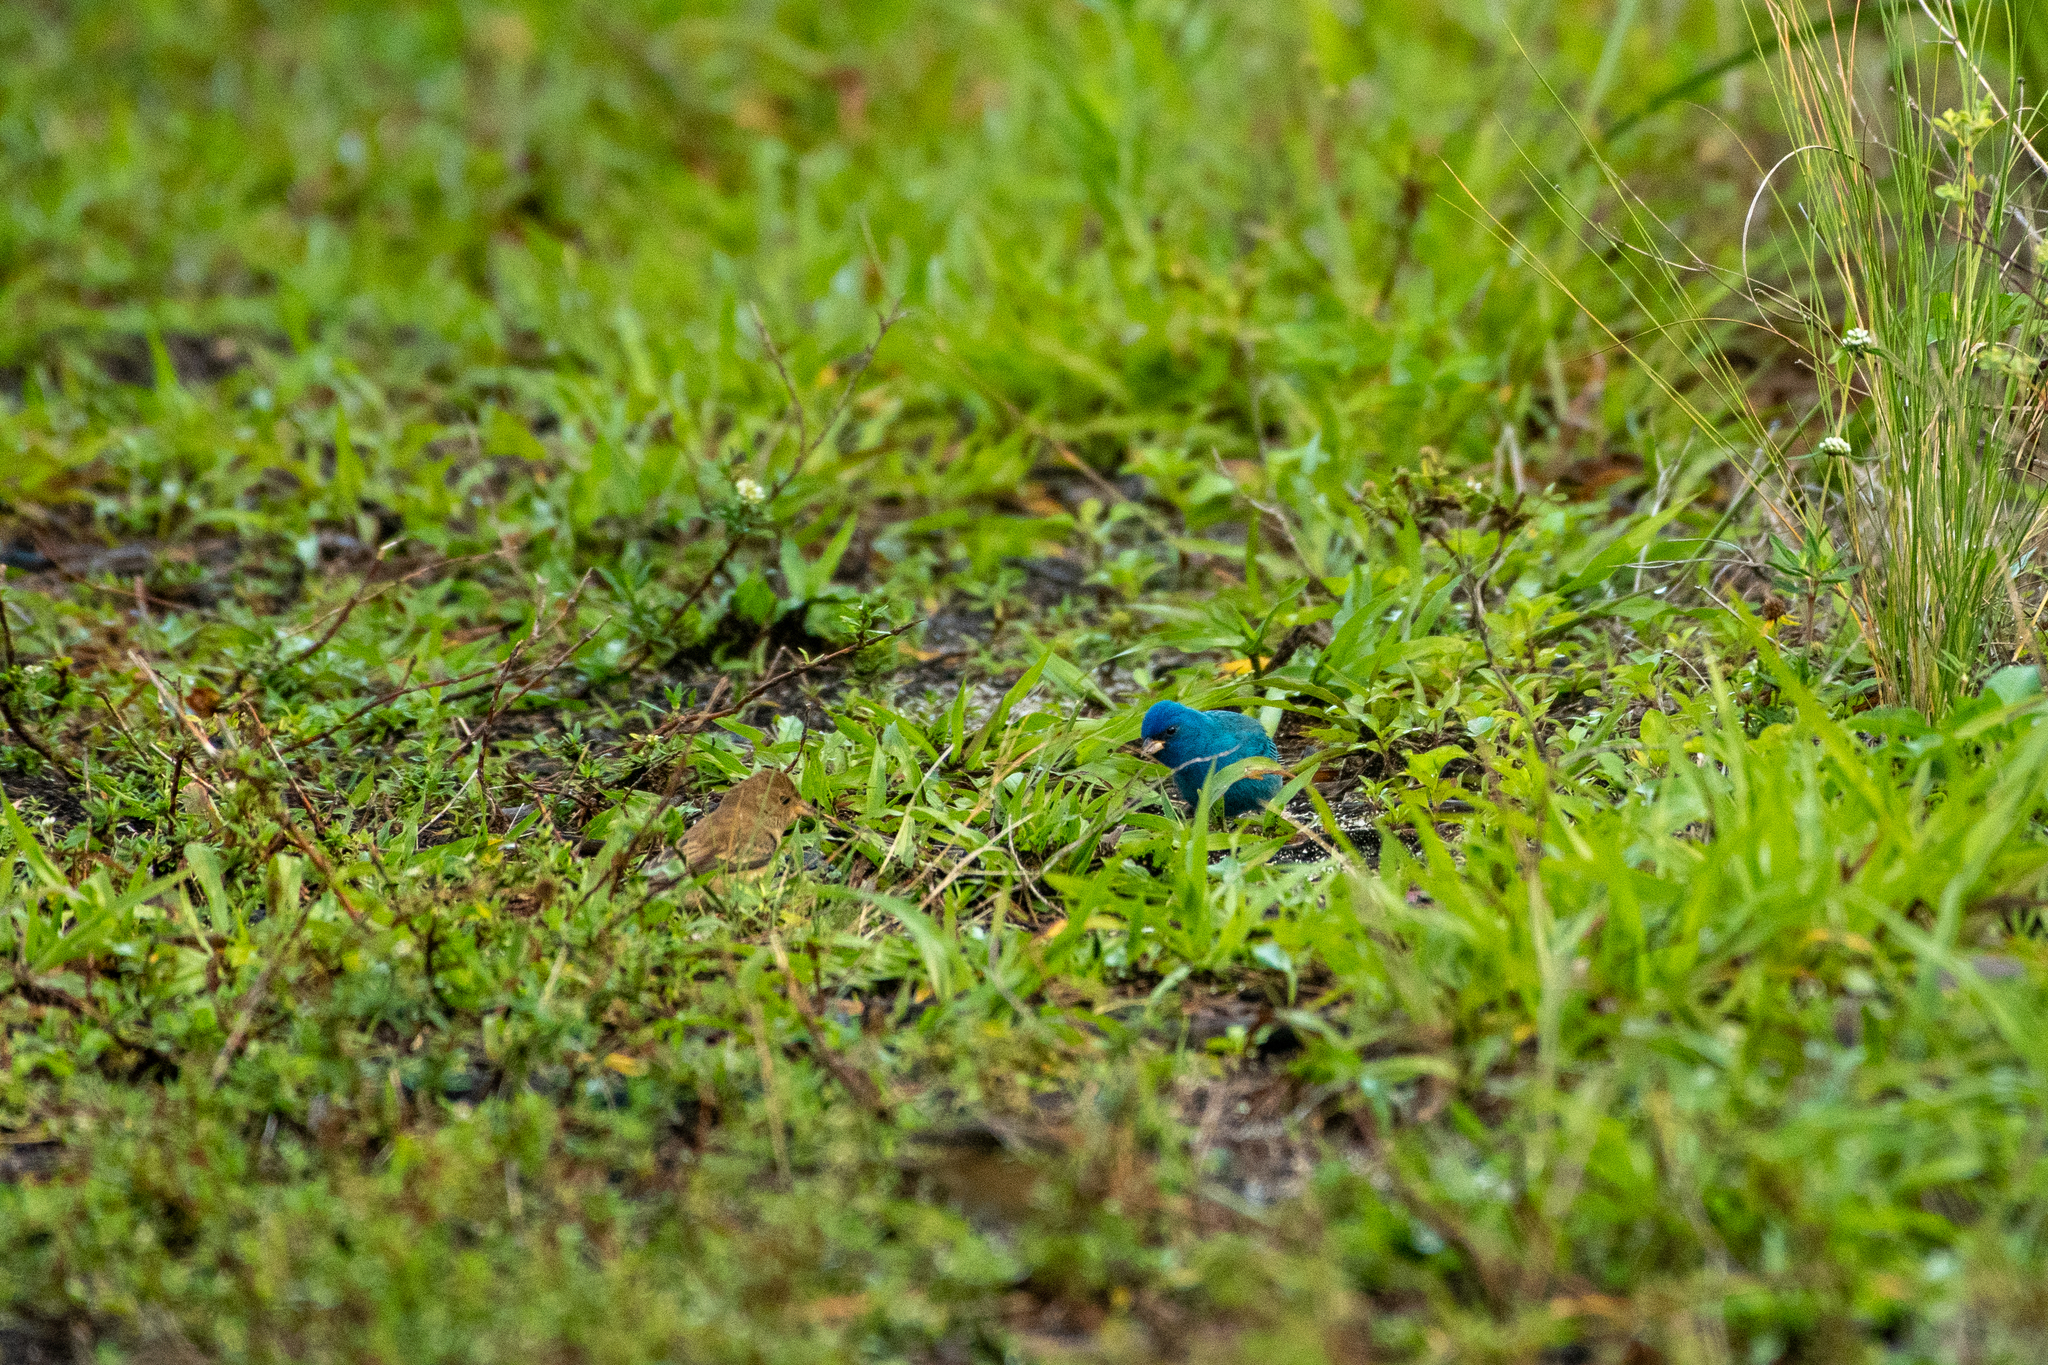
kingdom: Animalia
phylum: Chordata
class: Aves
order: Passeriformes
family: Cardinalidae
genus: Passerina
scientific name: Passerina cyanea
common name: Indigo bunting
